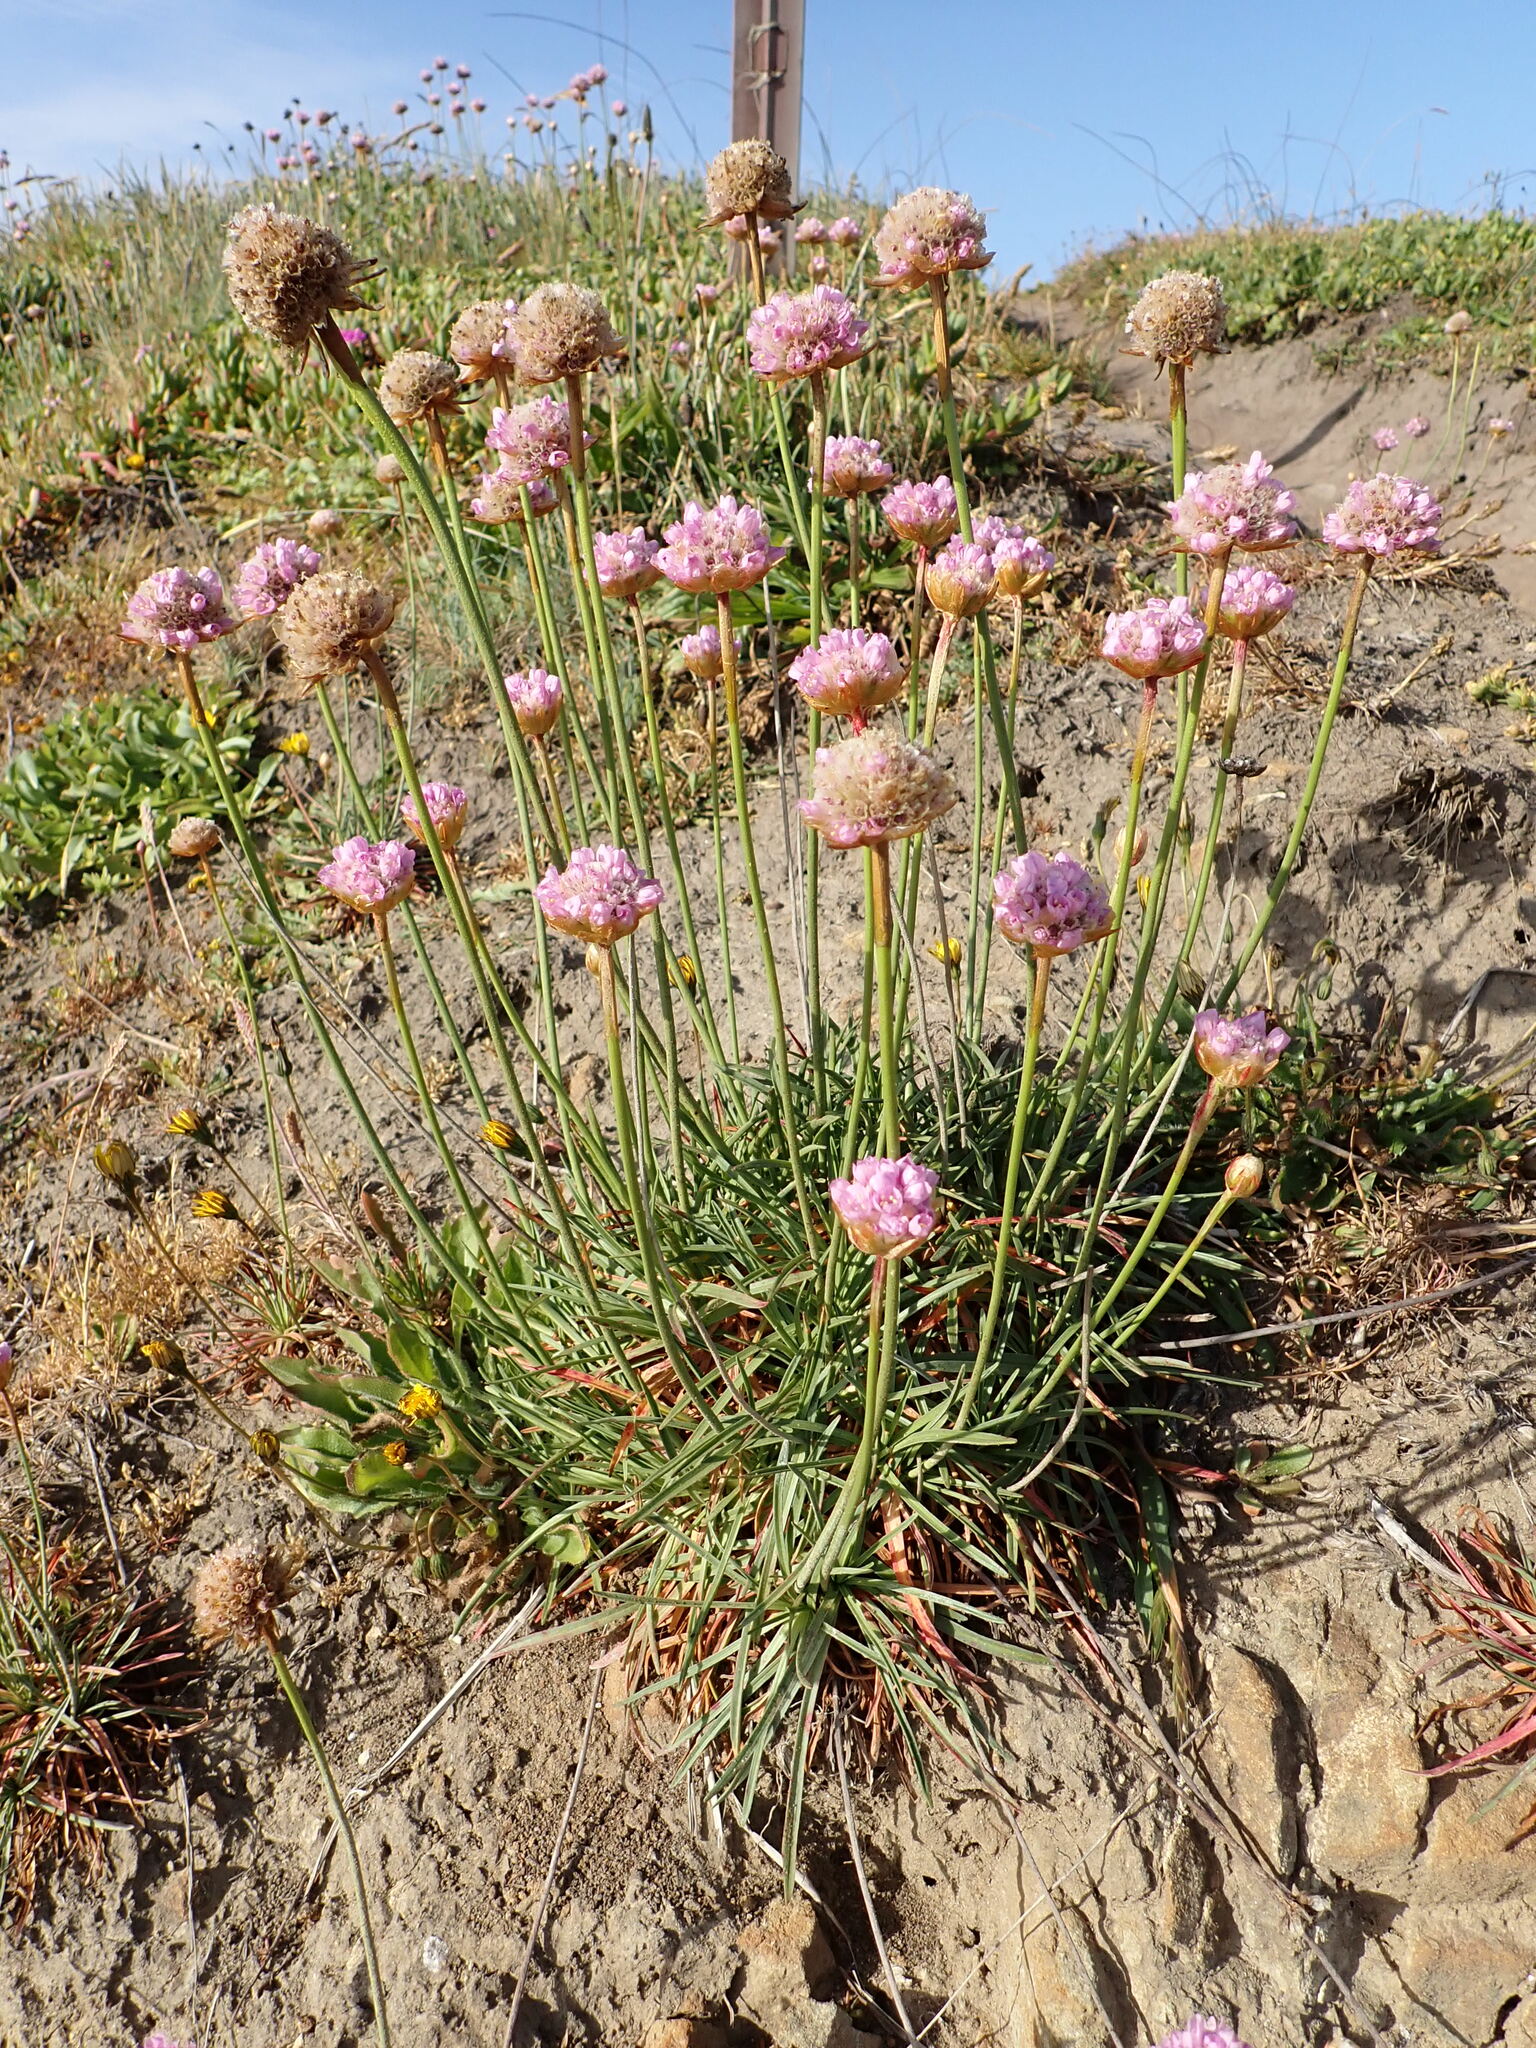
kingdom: Plantae
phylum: Tracheophyta
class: Magnoliopsida
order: Caryophyllales
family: Plumbaginaceae
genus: Armeria
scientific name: Armeria maritima
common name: Thrift
